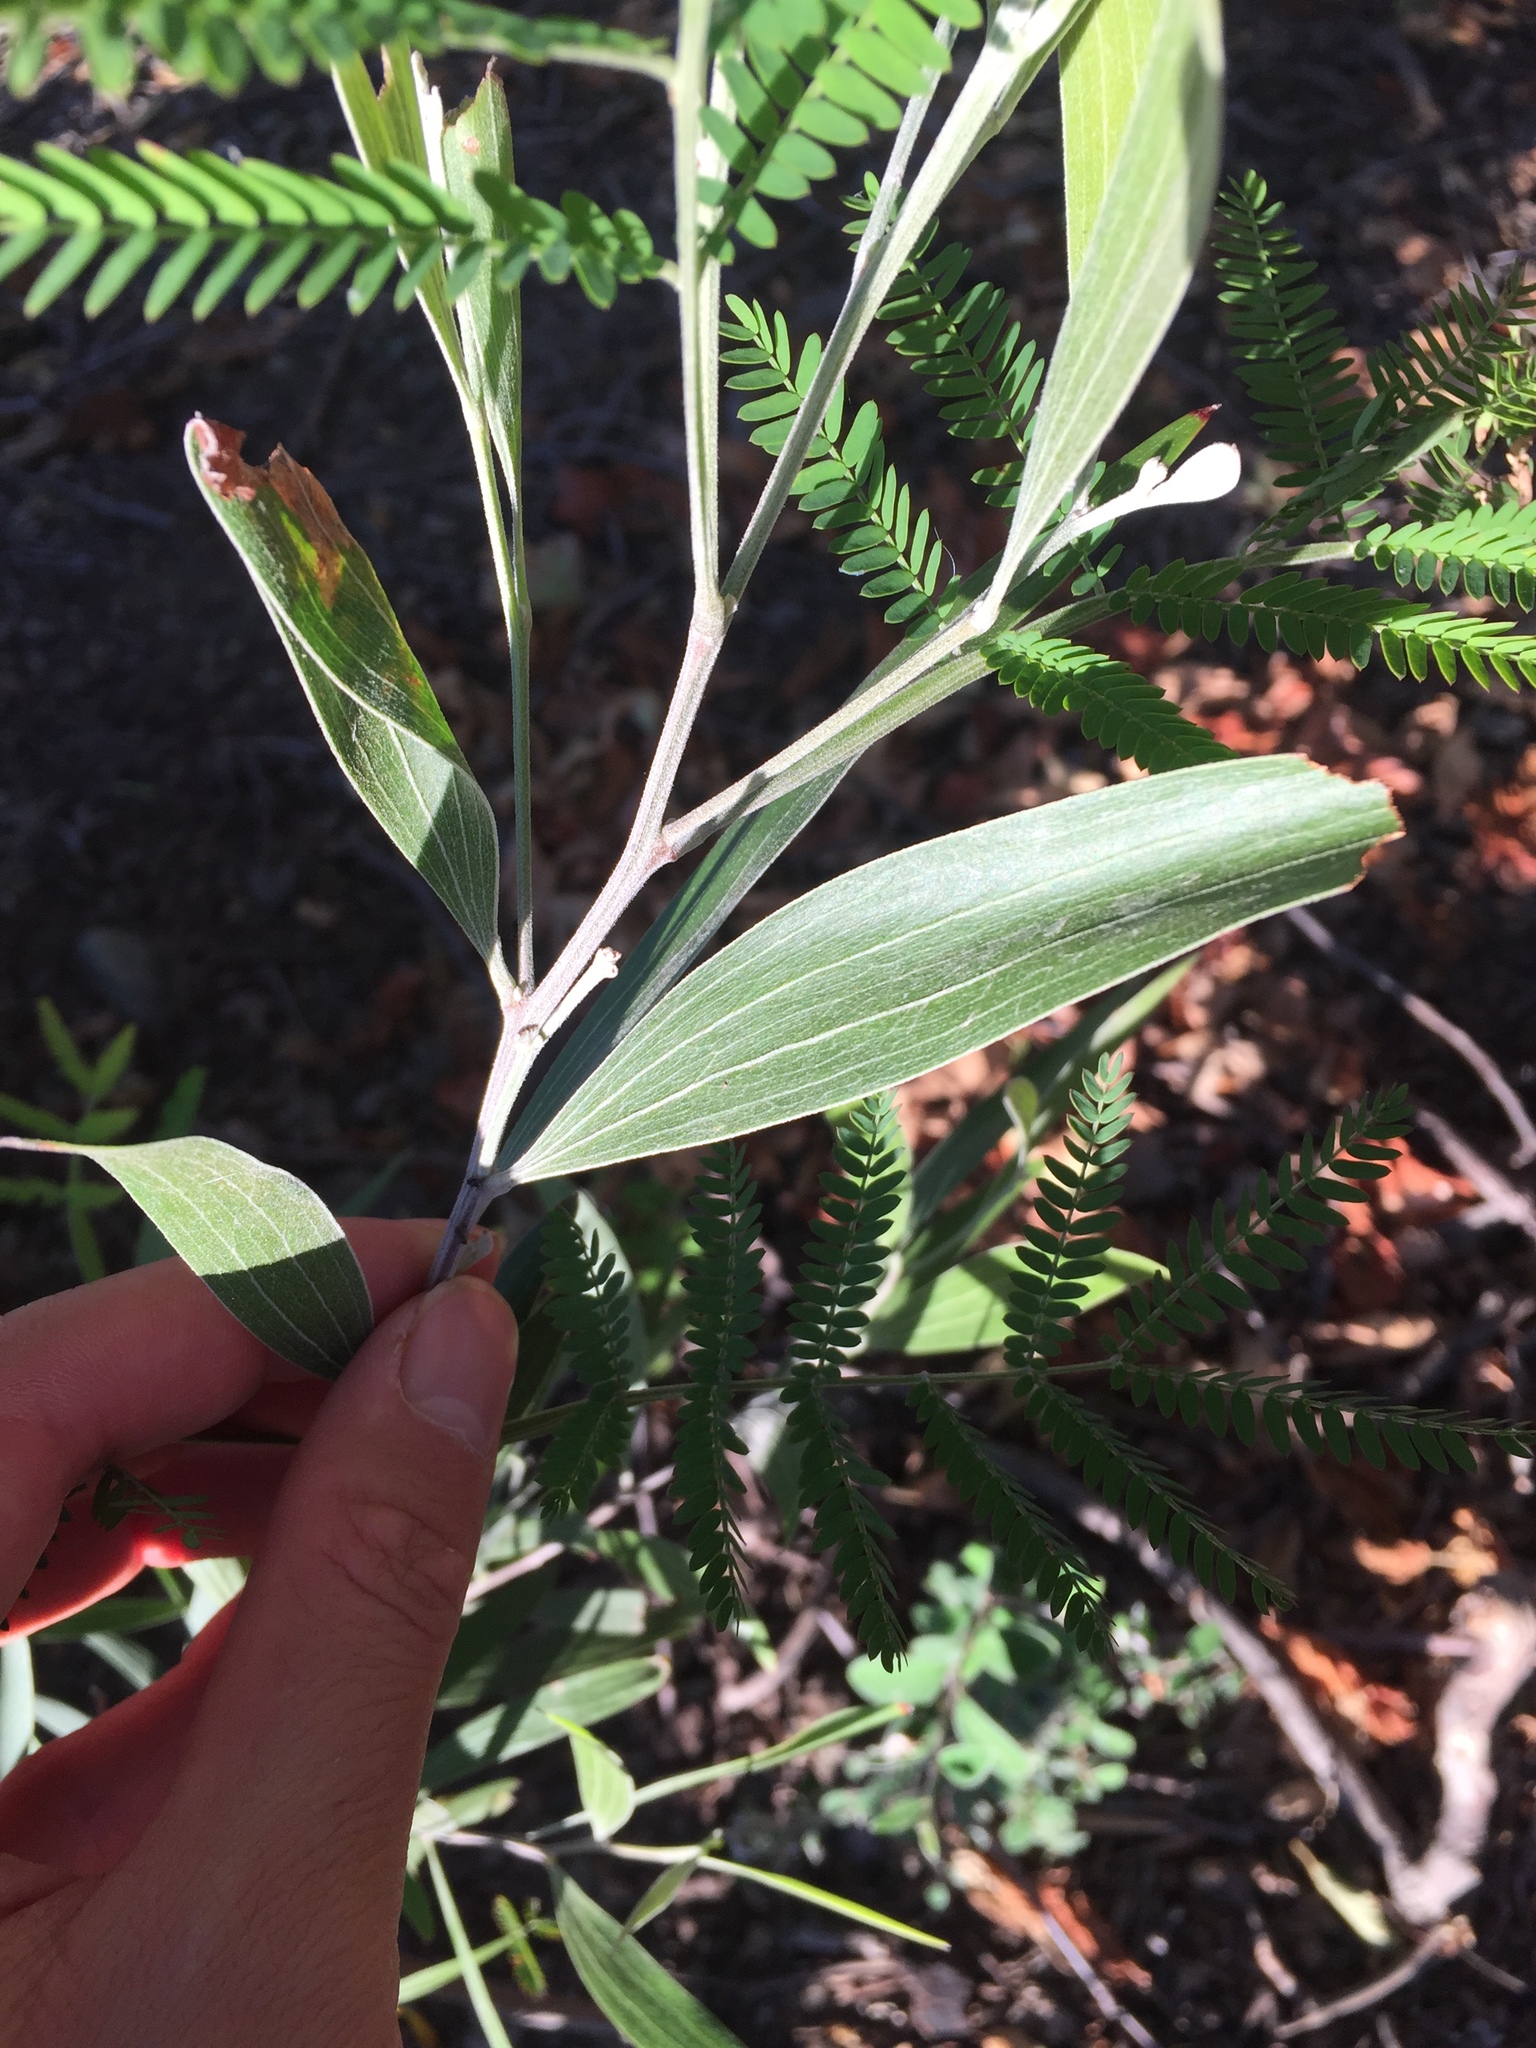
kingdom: Plantae
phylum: Tracheophyta
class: Magnoliopsida
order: Fabales
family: Fabaceae
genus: Acacia
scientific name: Acacia melanoxylon
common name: Blackwood
